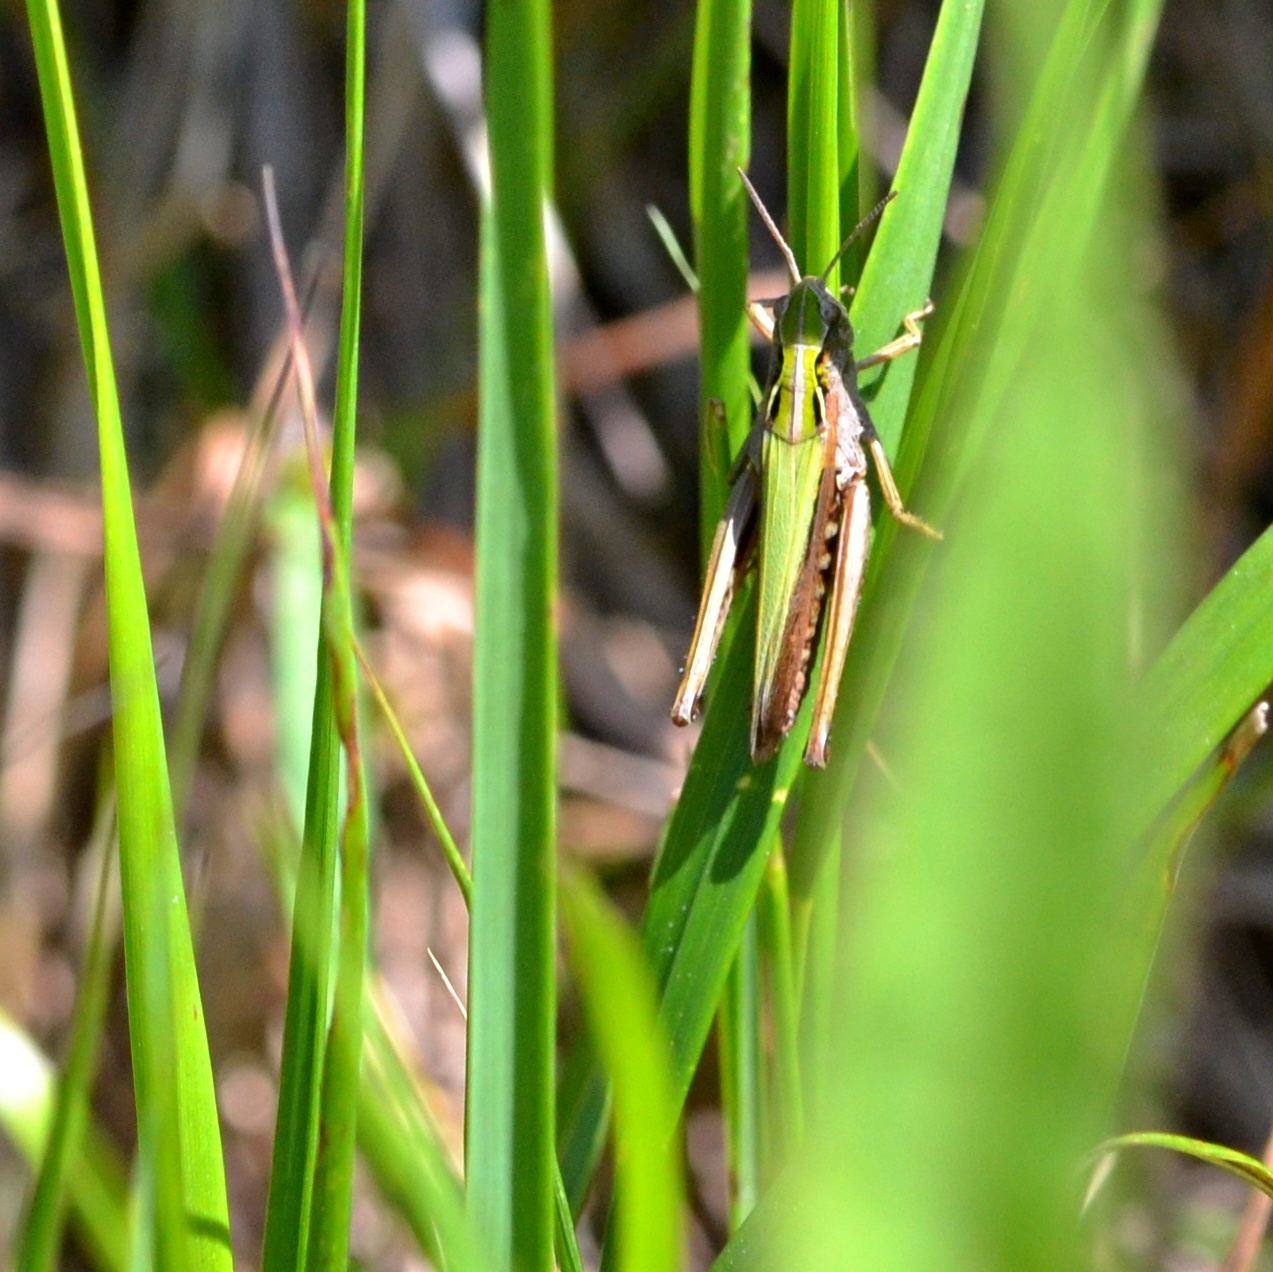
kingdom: Animalia
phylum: Arthropoda
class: Insecta
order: Orthoptera
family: Acrididae
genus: Omocestus
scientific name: Omocestus viridulus
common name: Common green grasshopper
